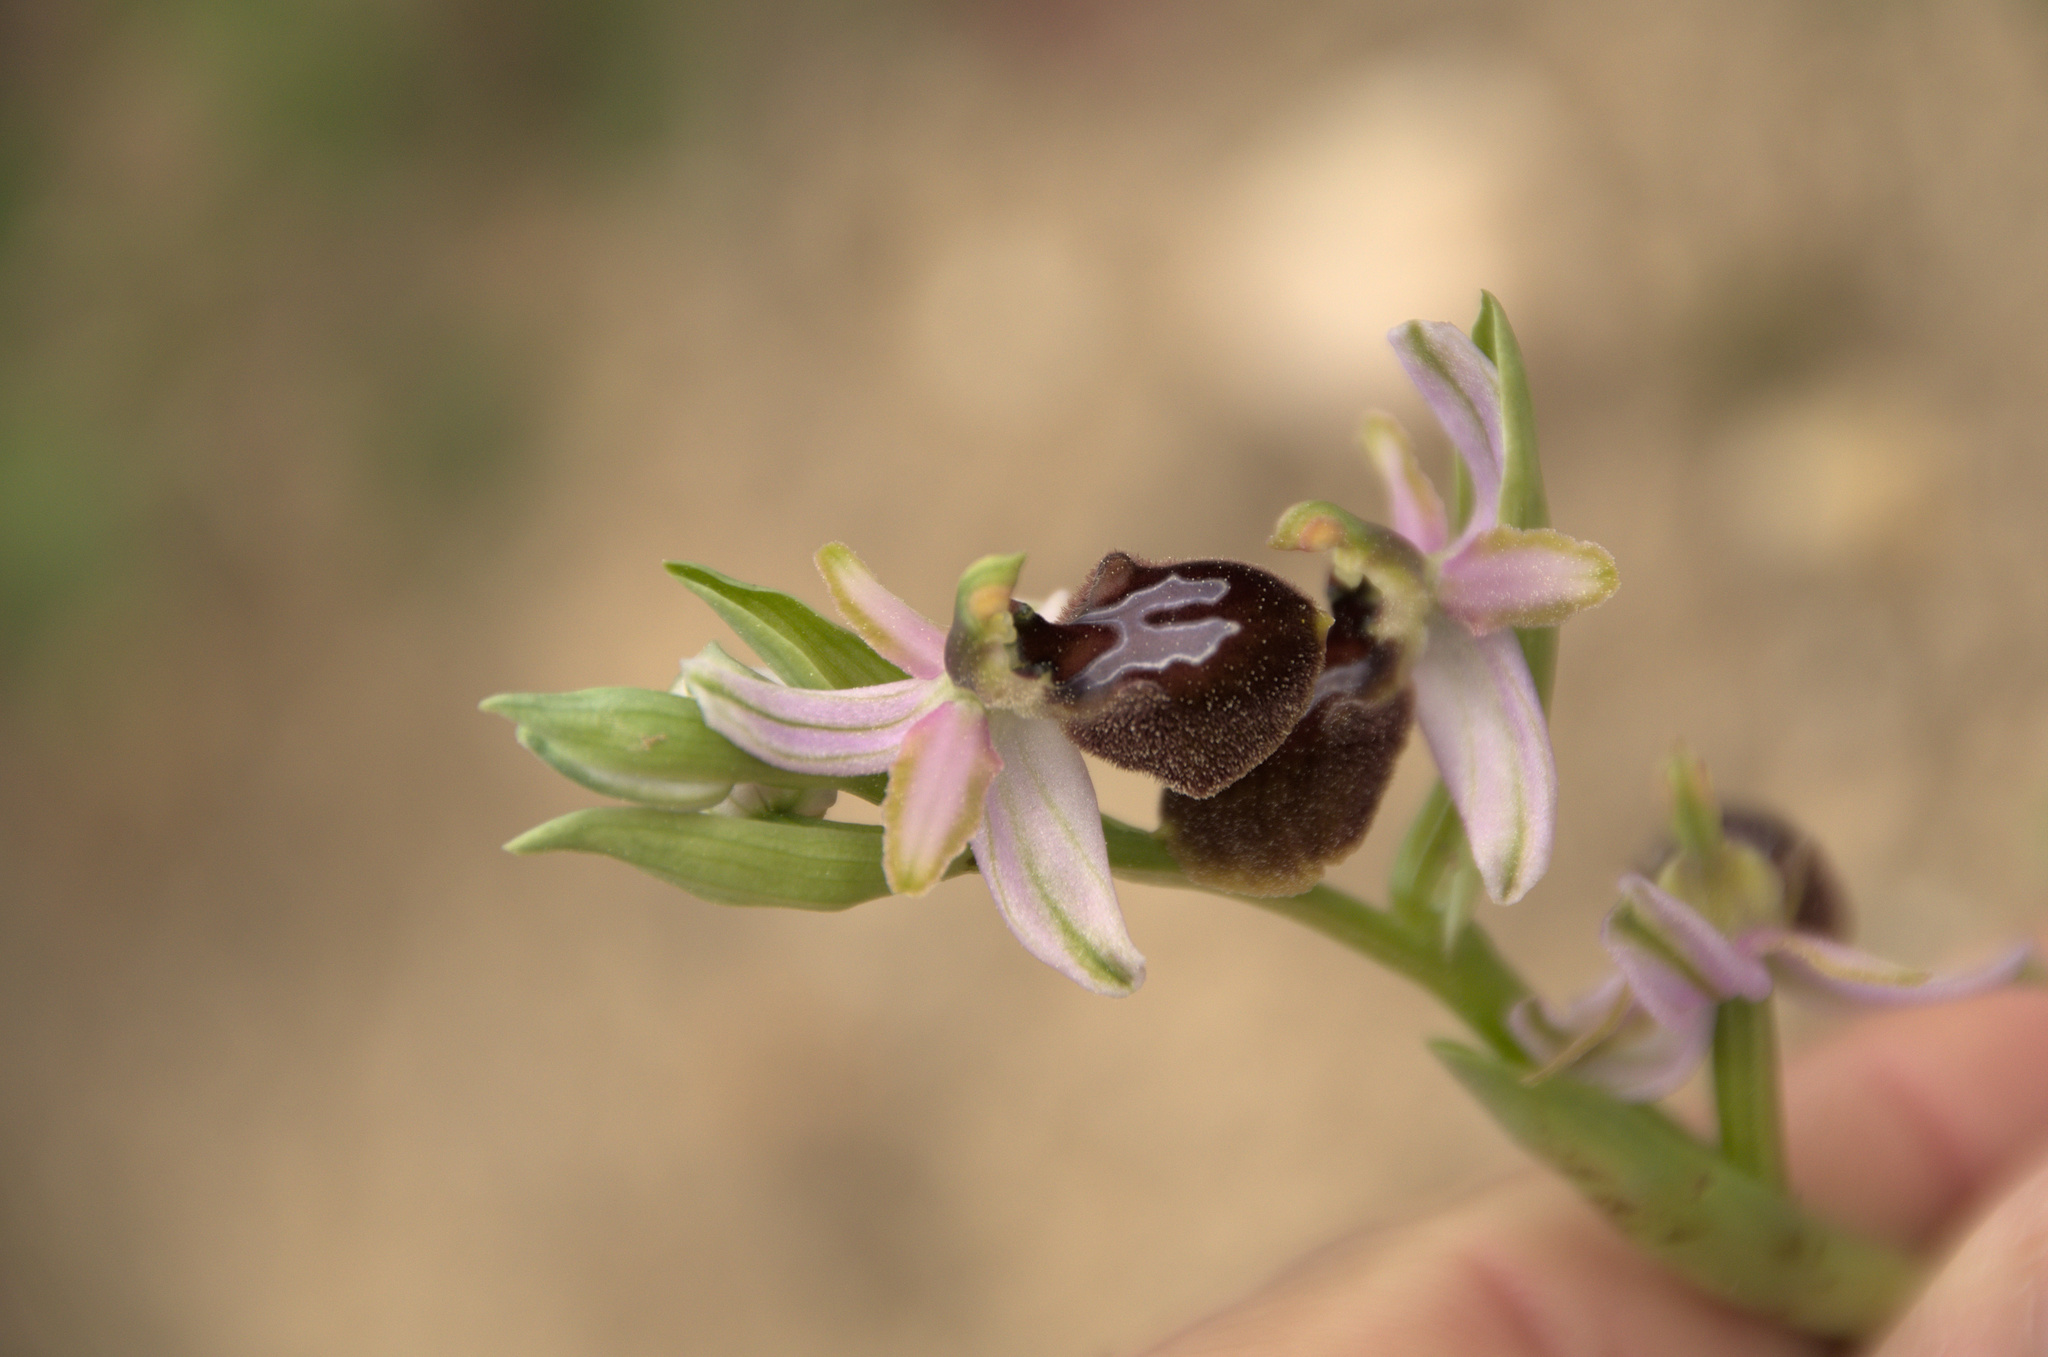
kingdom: Plantae
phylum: Tracheophyta
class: Liliopsida
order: Asparagales
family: Orchidaceae
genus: Ophrys
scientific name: Ophrys arachnitiformis
